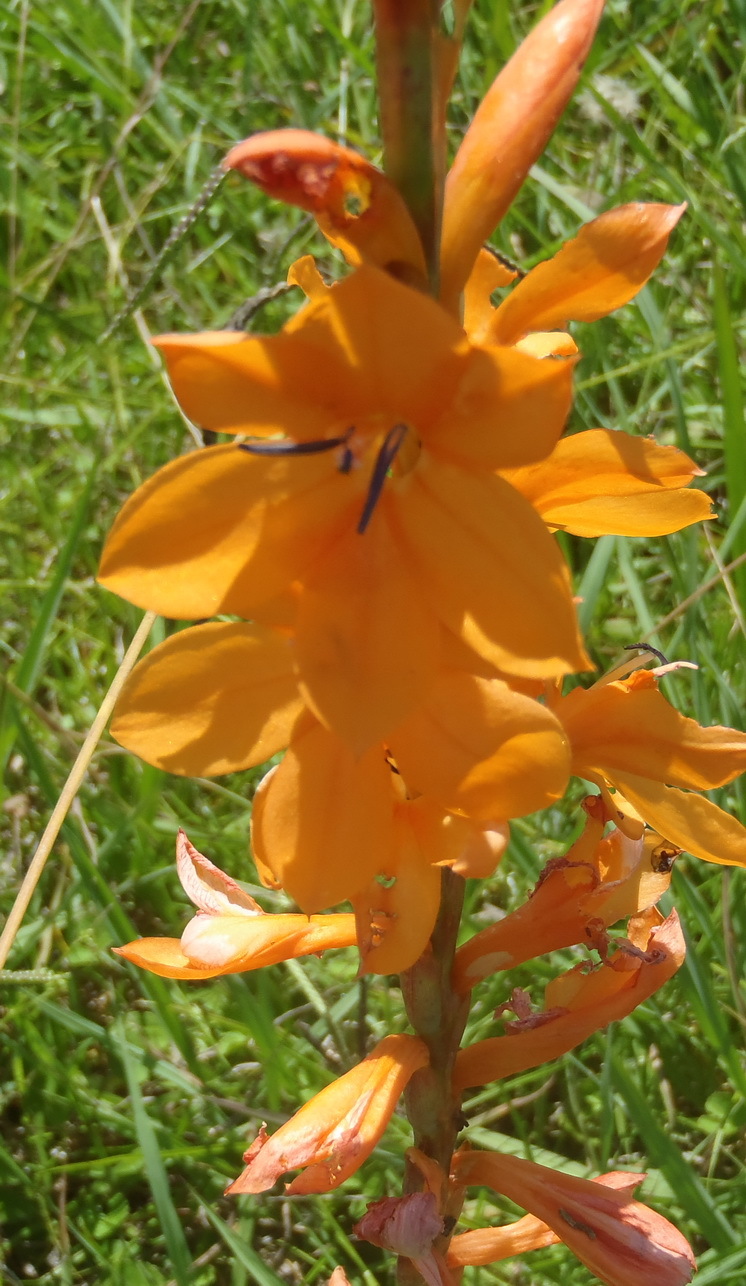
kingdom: Plantae
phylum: Tracheophyta
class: Liliopsida
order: Asparagales
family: Iridaceae
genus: Watsonia
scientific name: Watsonia pillansii
